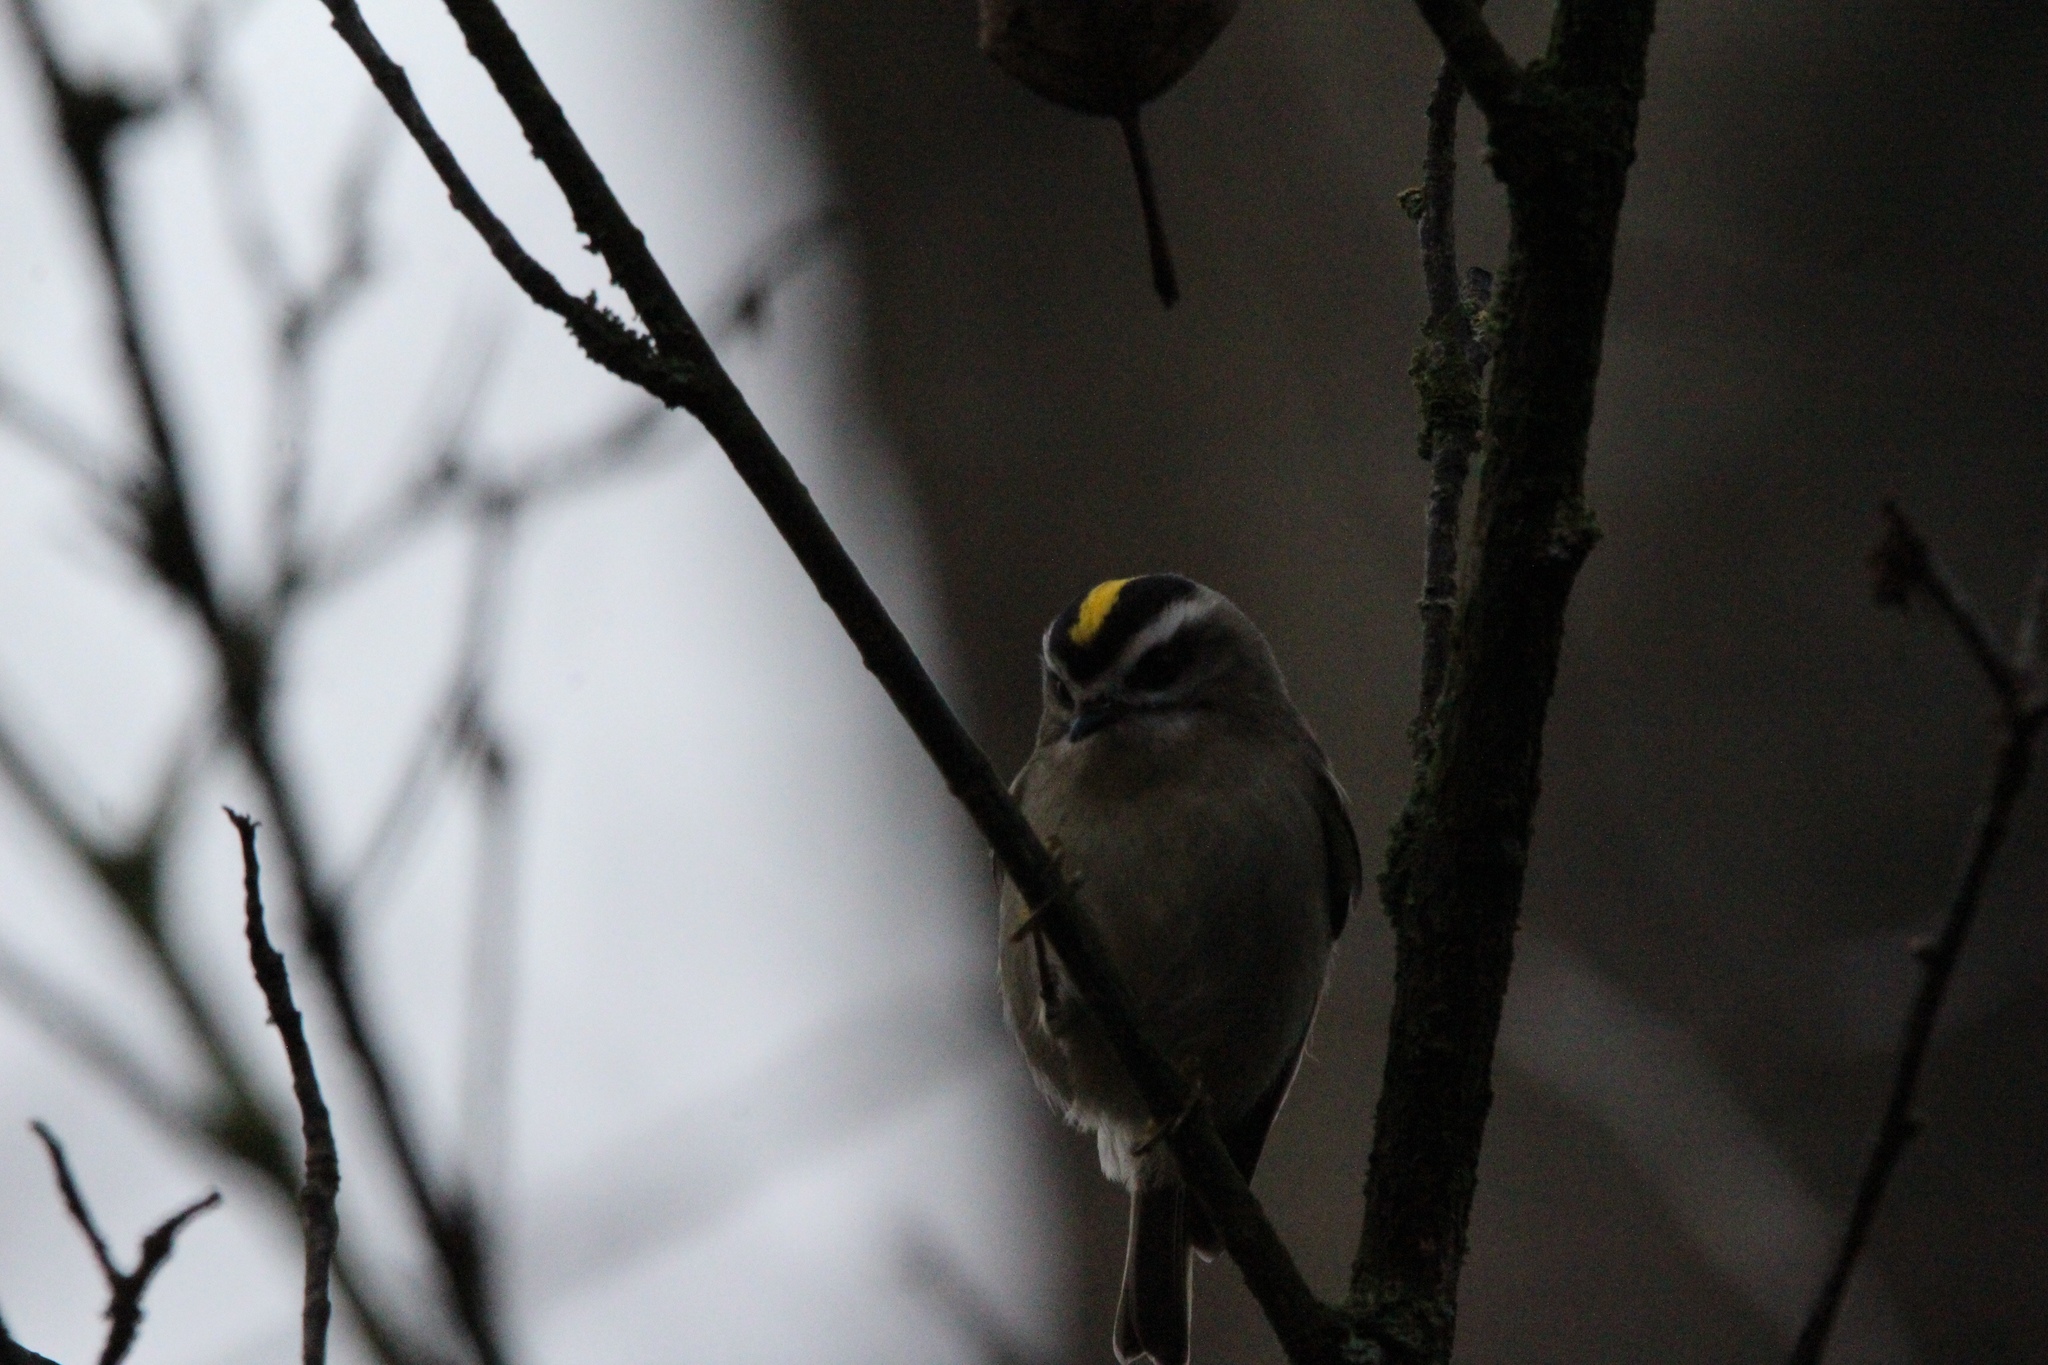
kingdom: Animalia
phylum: Chordata
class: Aves
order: Passeriformes
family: Regulidae
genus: Regulus
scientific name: Regulus satrapa
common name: Golden-crowned kinglet
